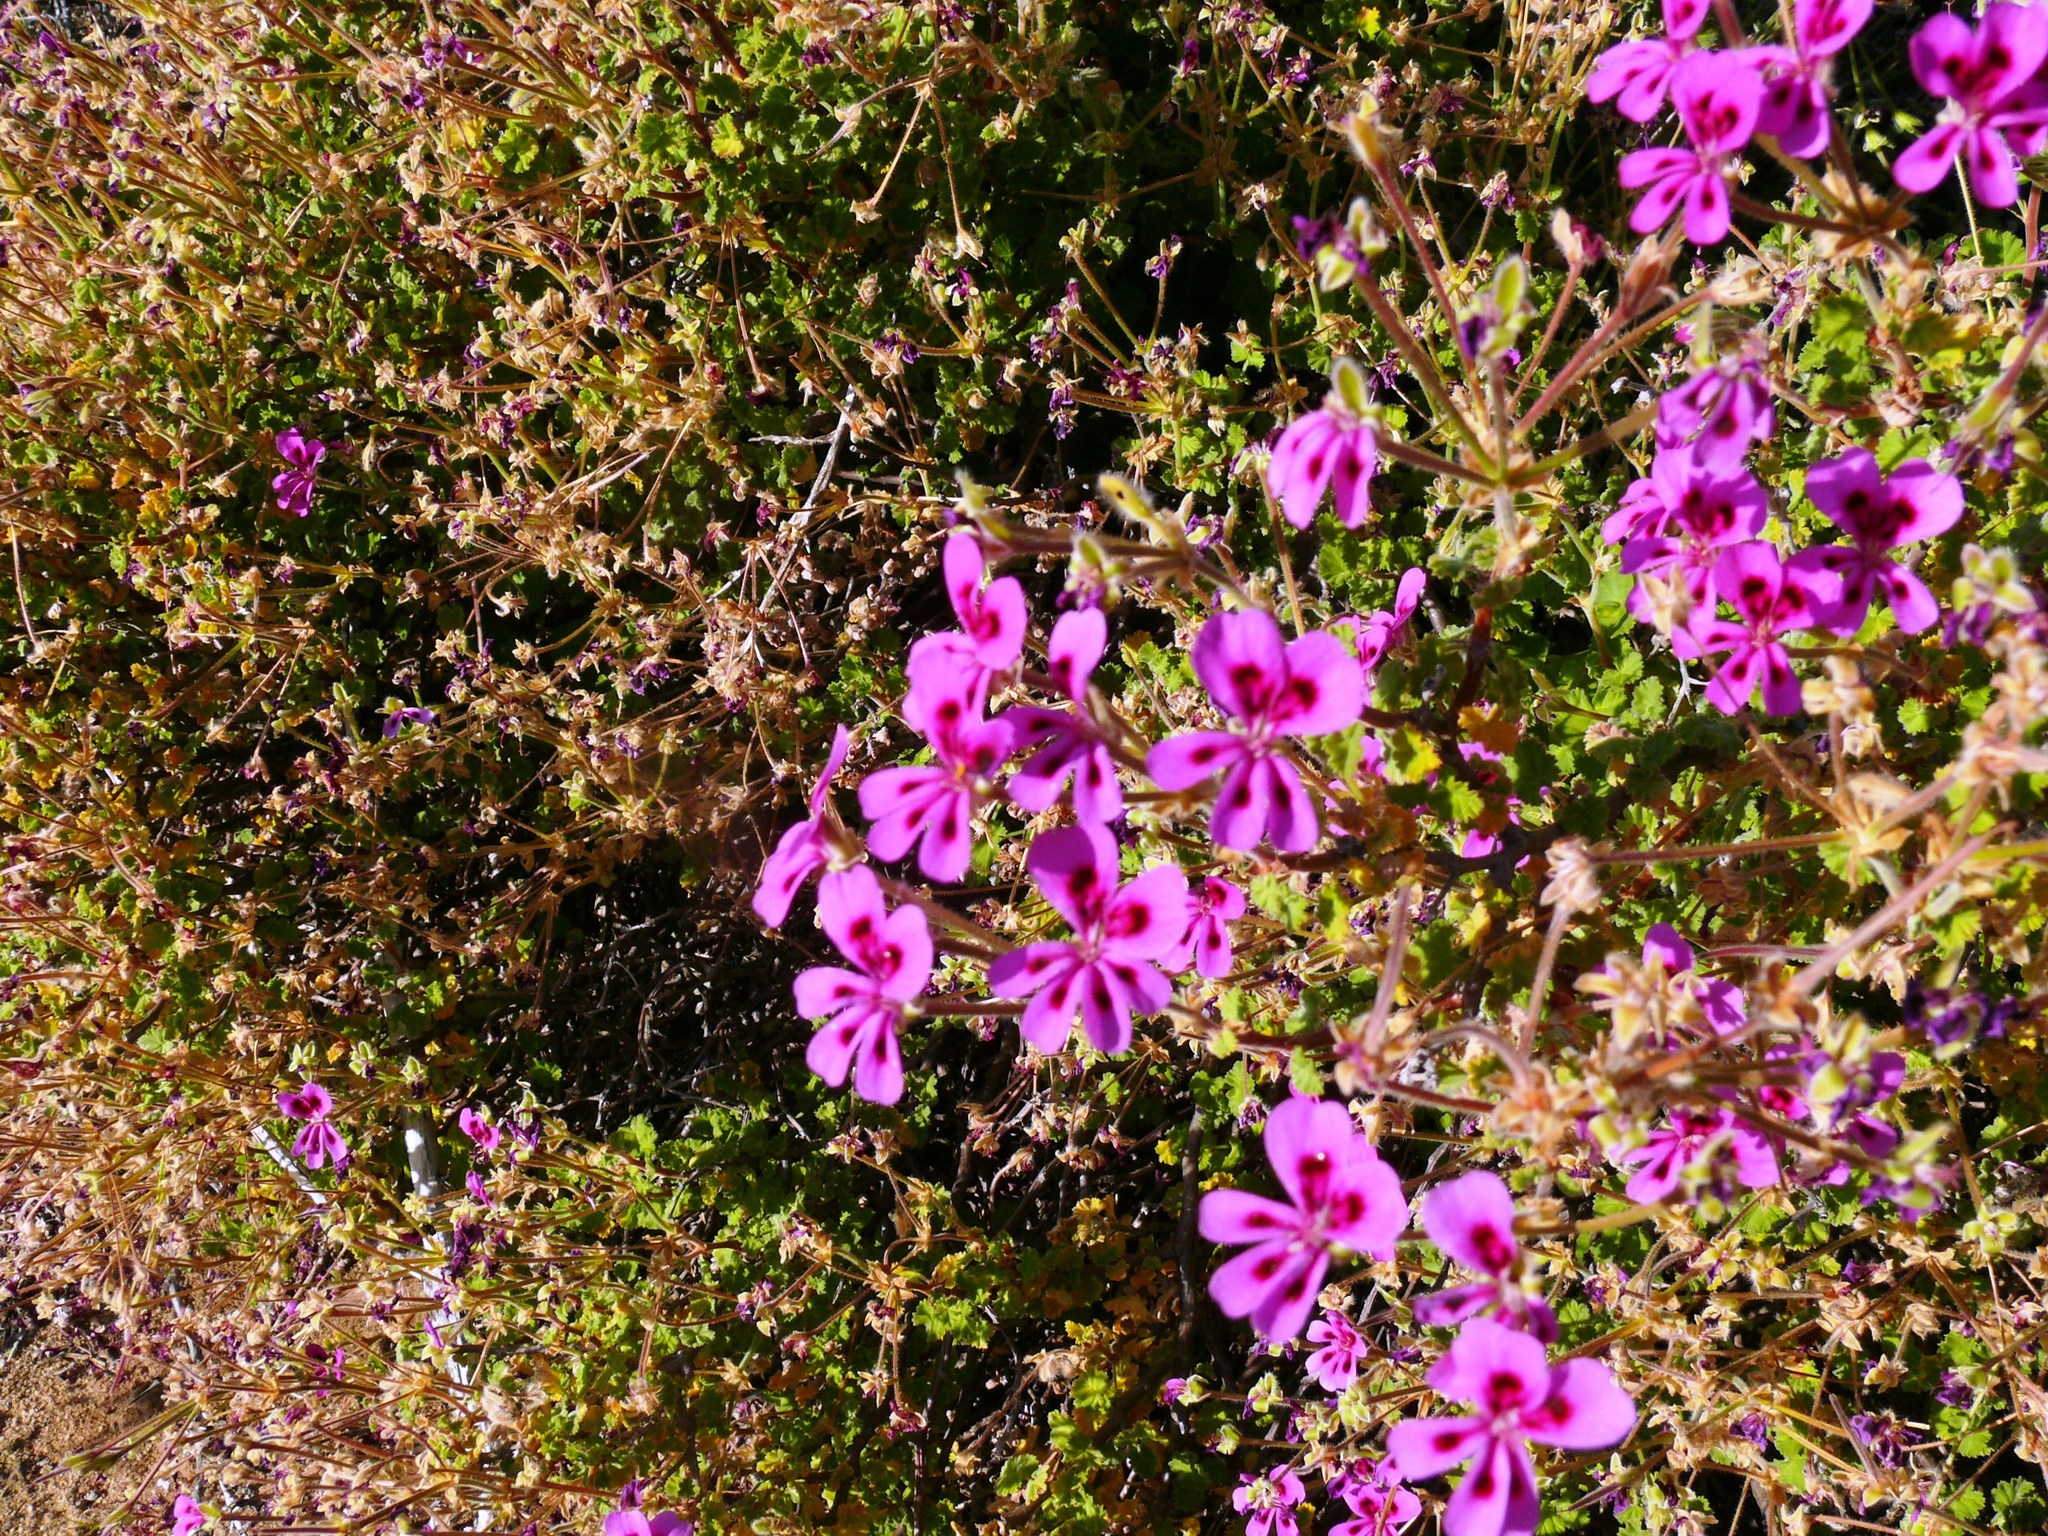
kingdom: Plantae
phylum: Tracheophyta
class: Magnoliopsida
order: Geraniales
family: Geraniaceae
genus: Pelargonium
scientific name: Pelargonium magenteum
